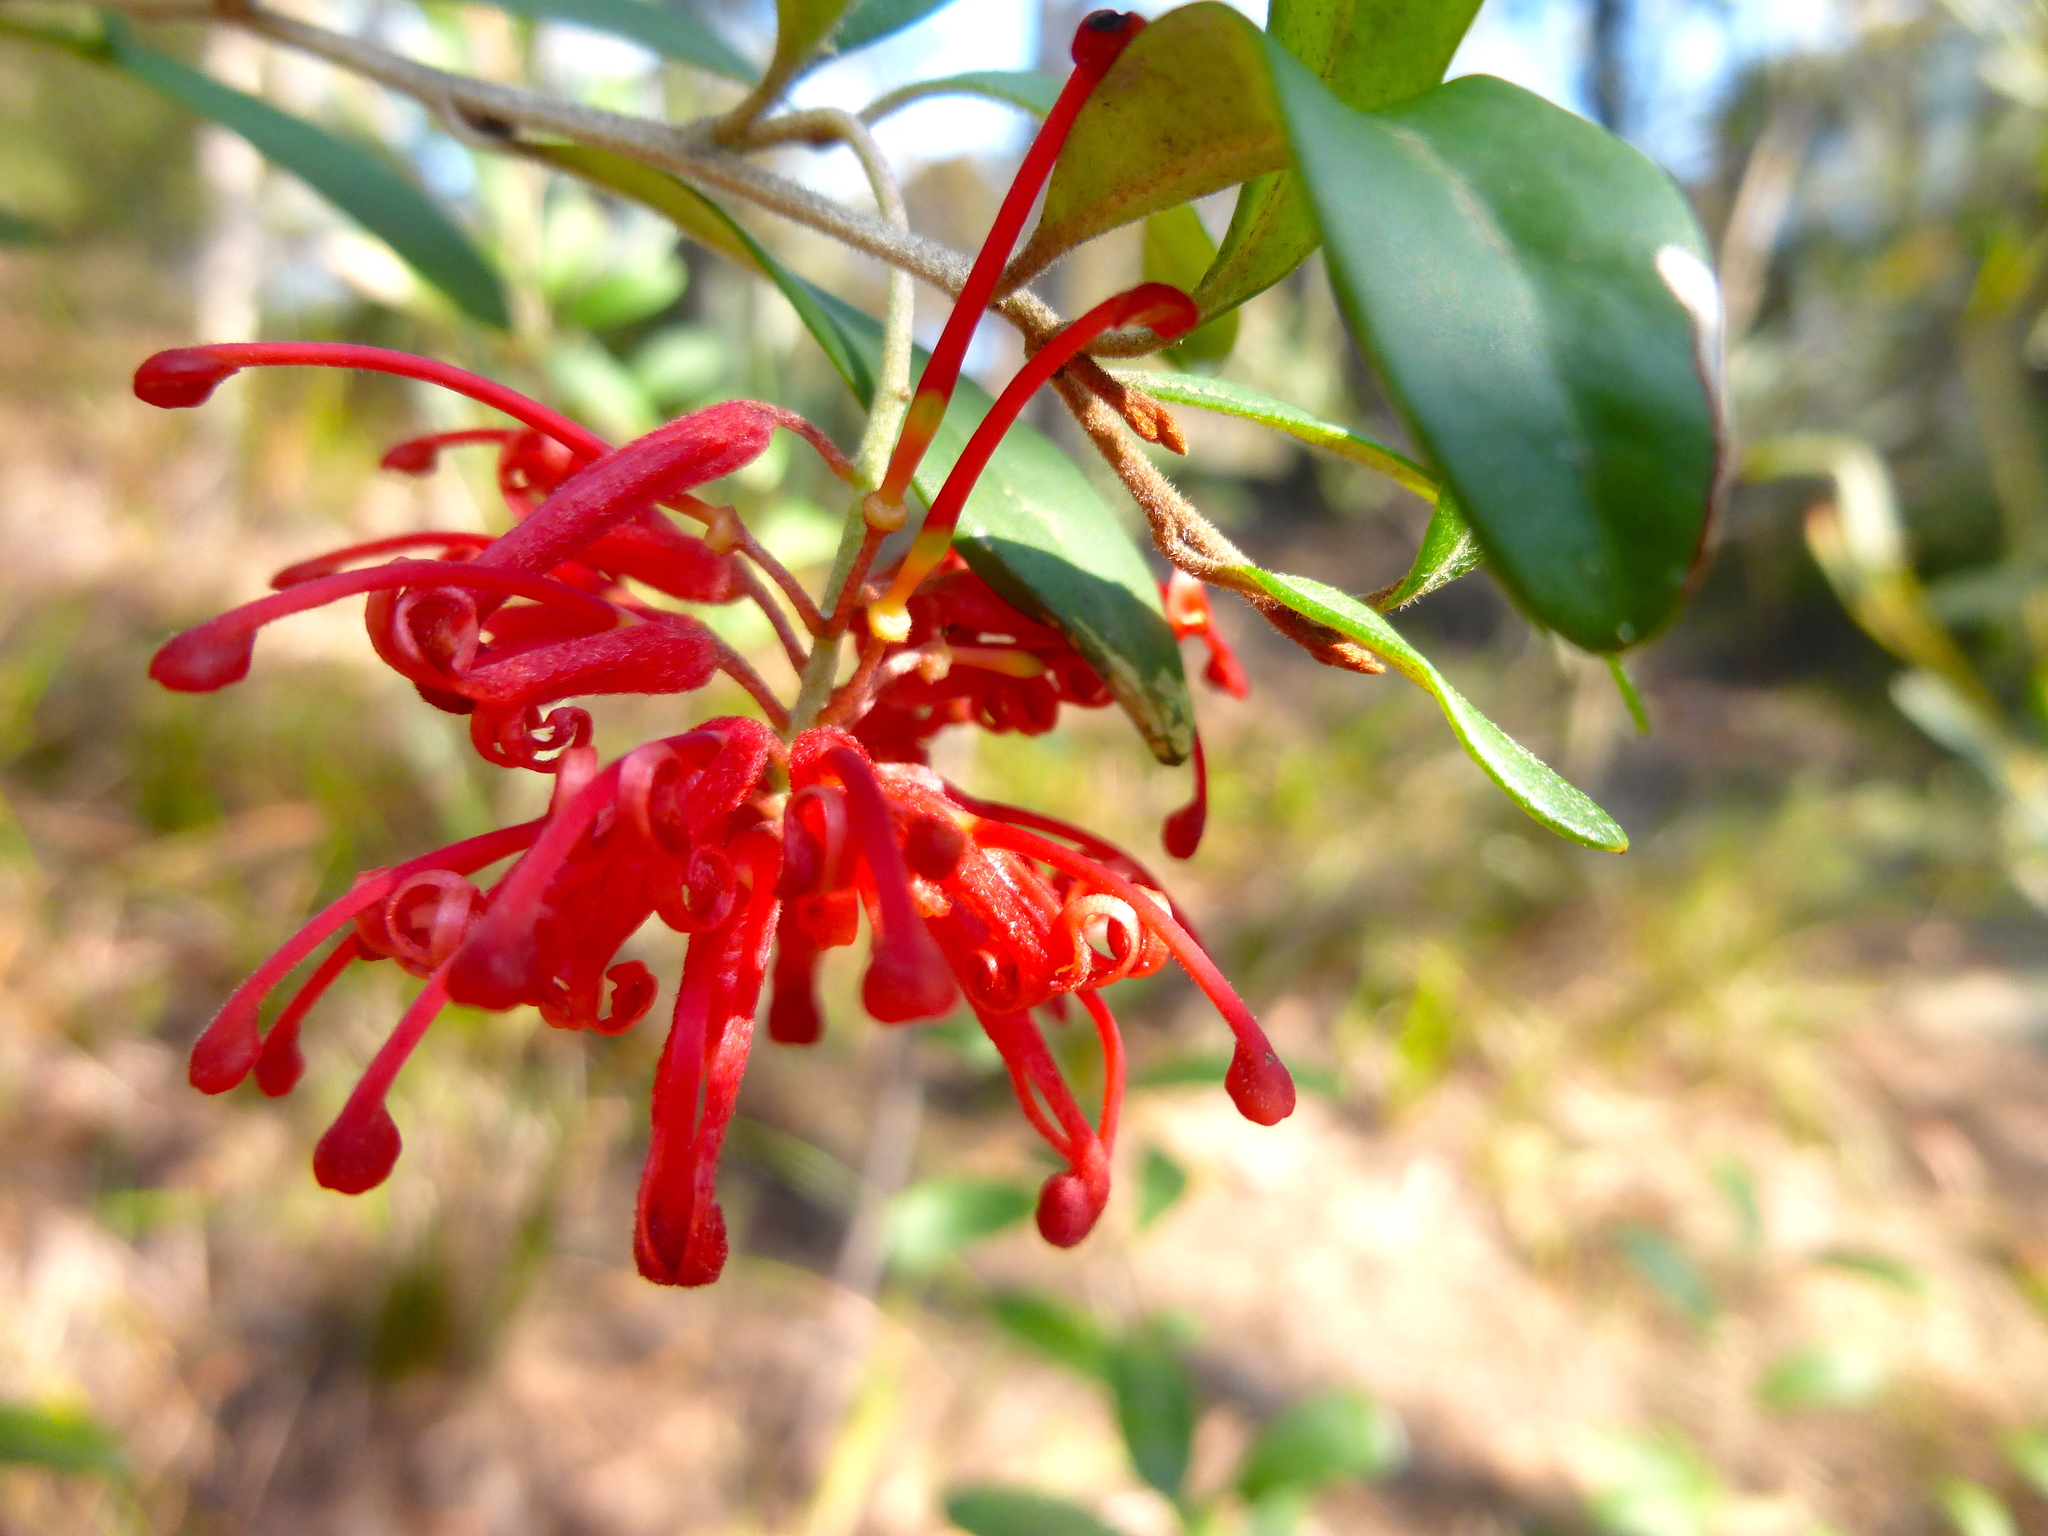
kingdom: Plantae
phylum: Tracheophyta
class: Magnoliopsida
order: Proteales
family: Proteaceae
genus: Grevillea
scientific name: Grevillea parvula
